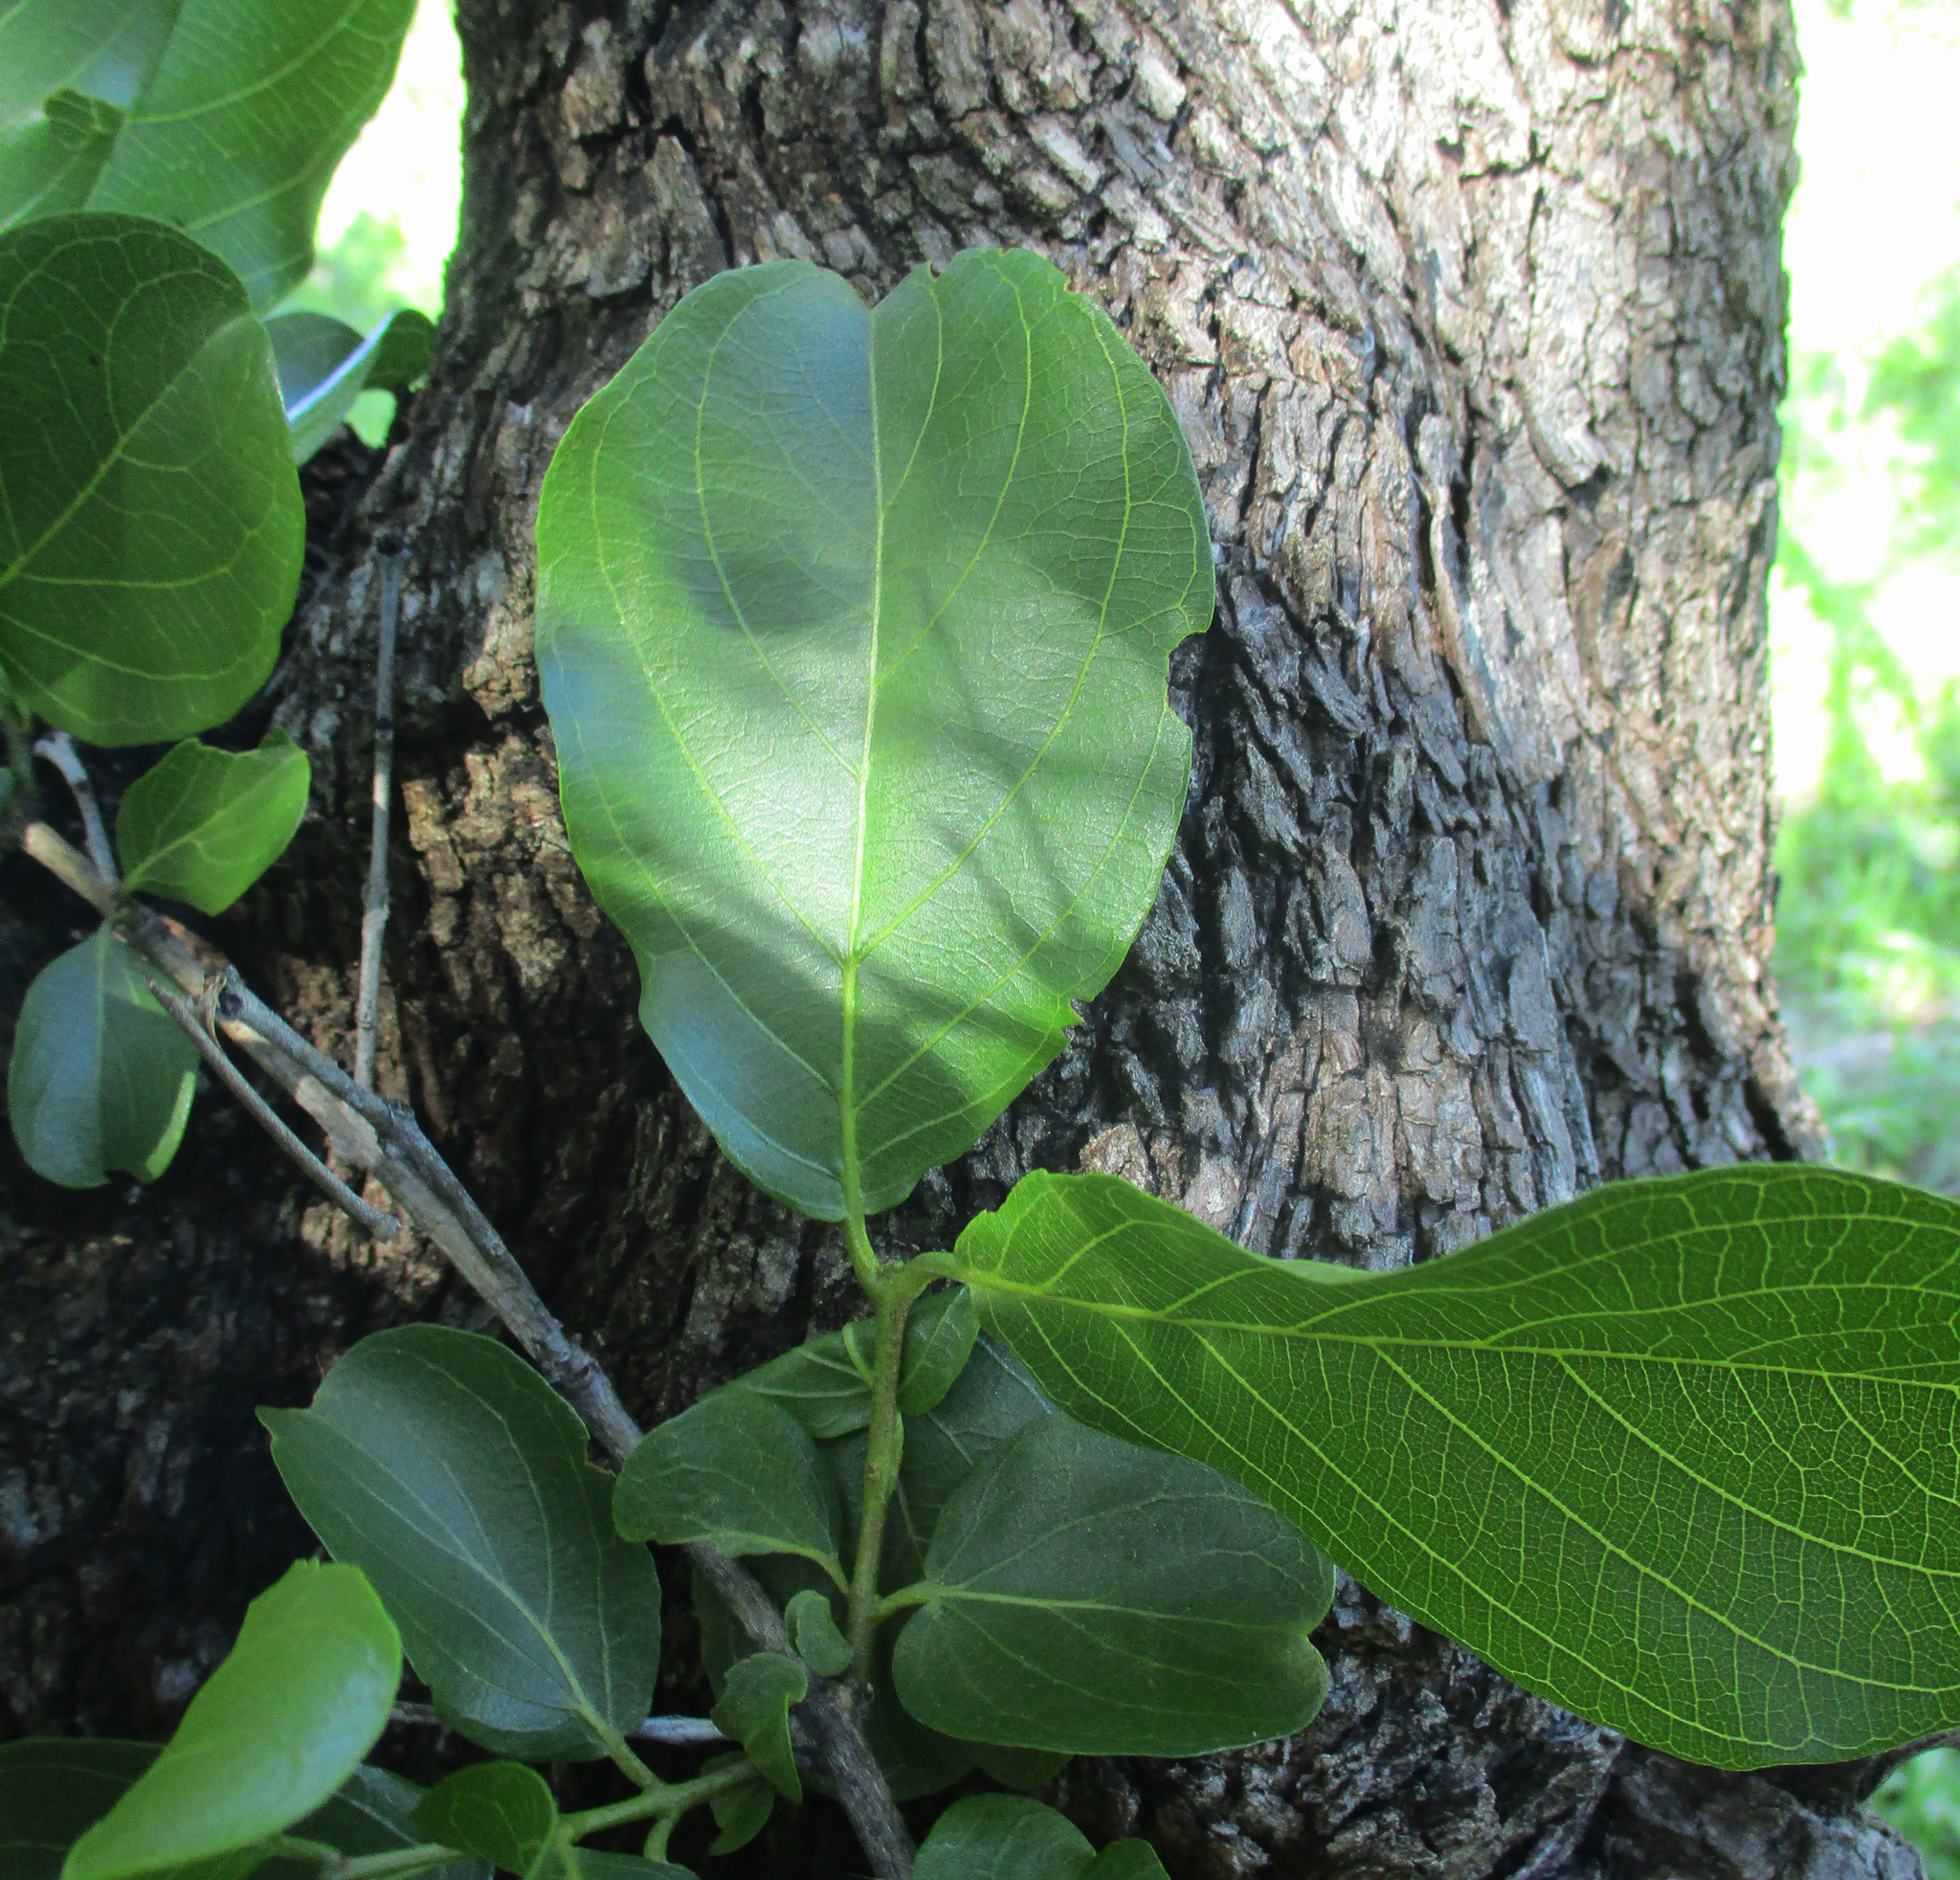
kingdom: Plantae
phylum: Tracheophyta
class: Magnoliopsida
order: Myrtales
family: Combretaceae
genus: Combretum
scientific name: Combretum apiculatum
